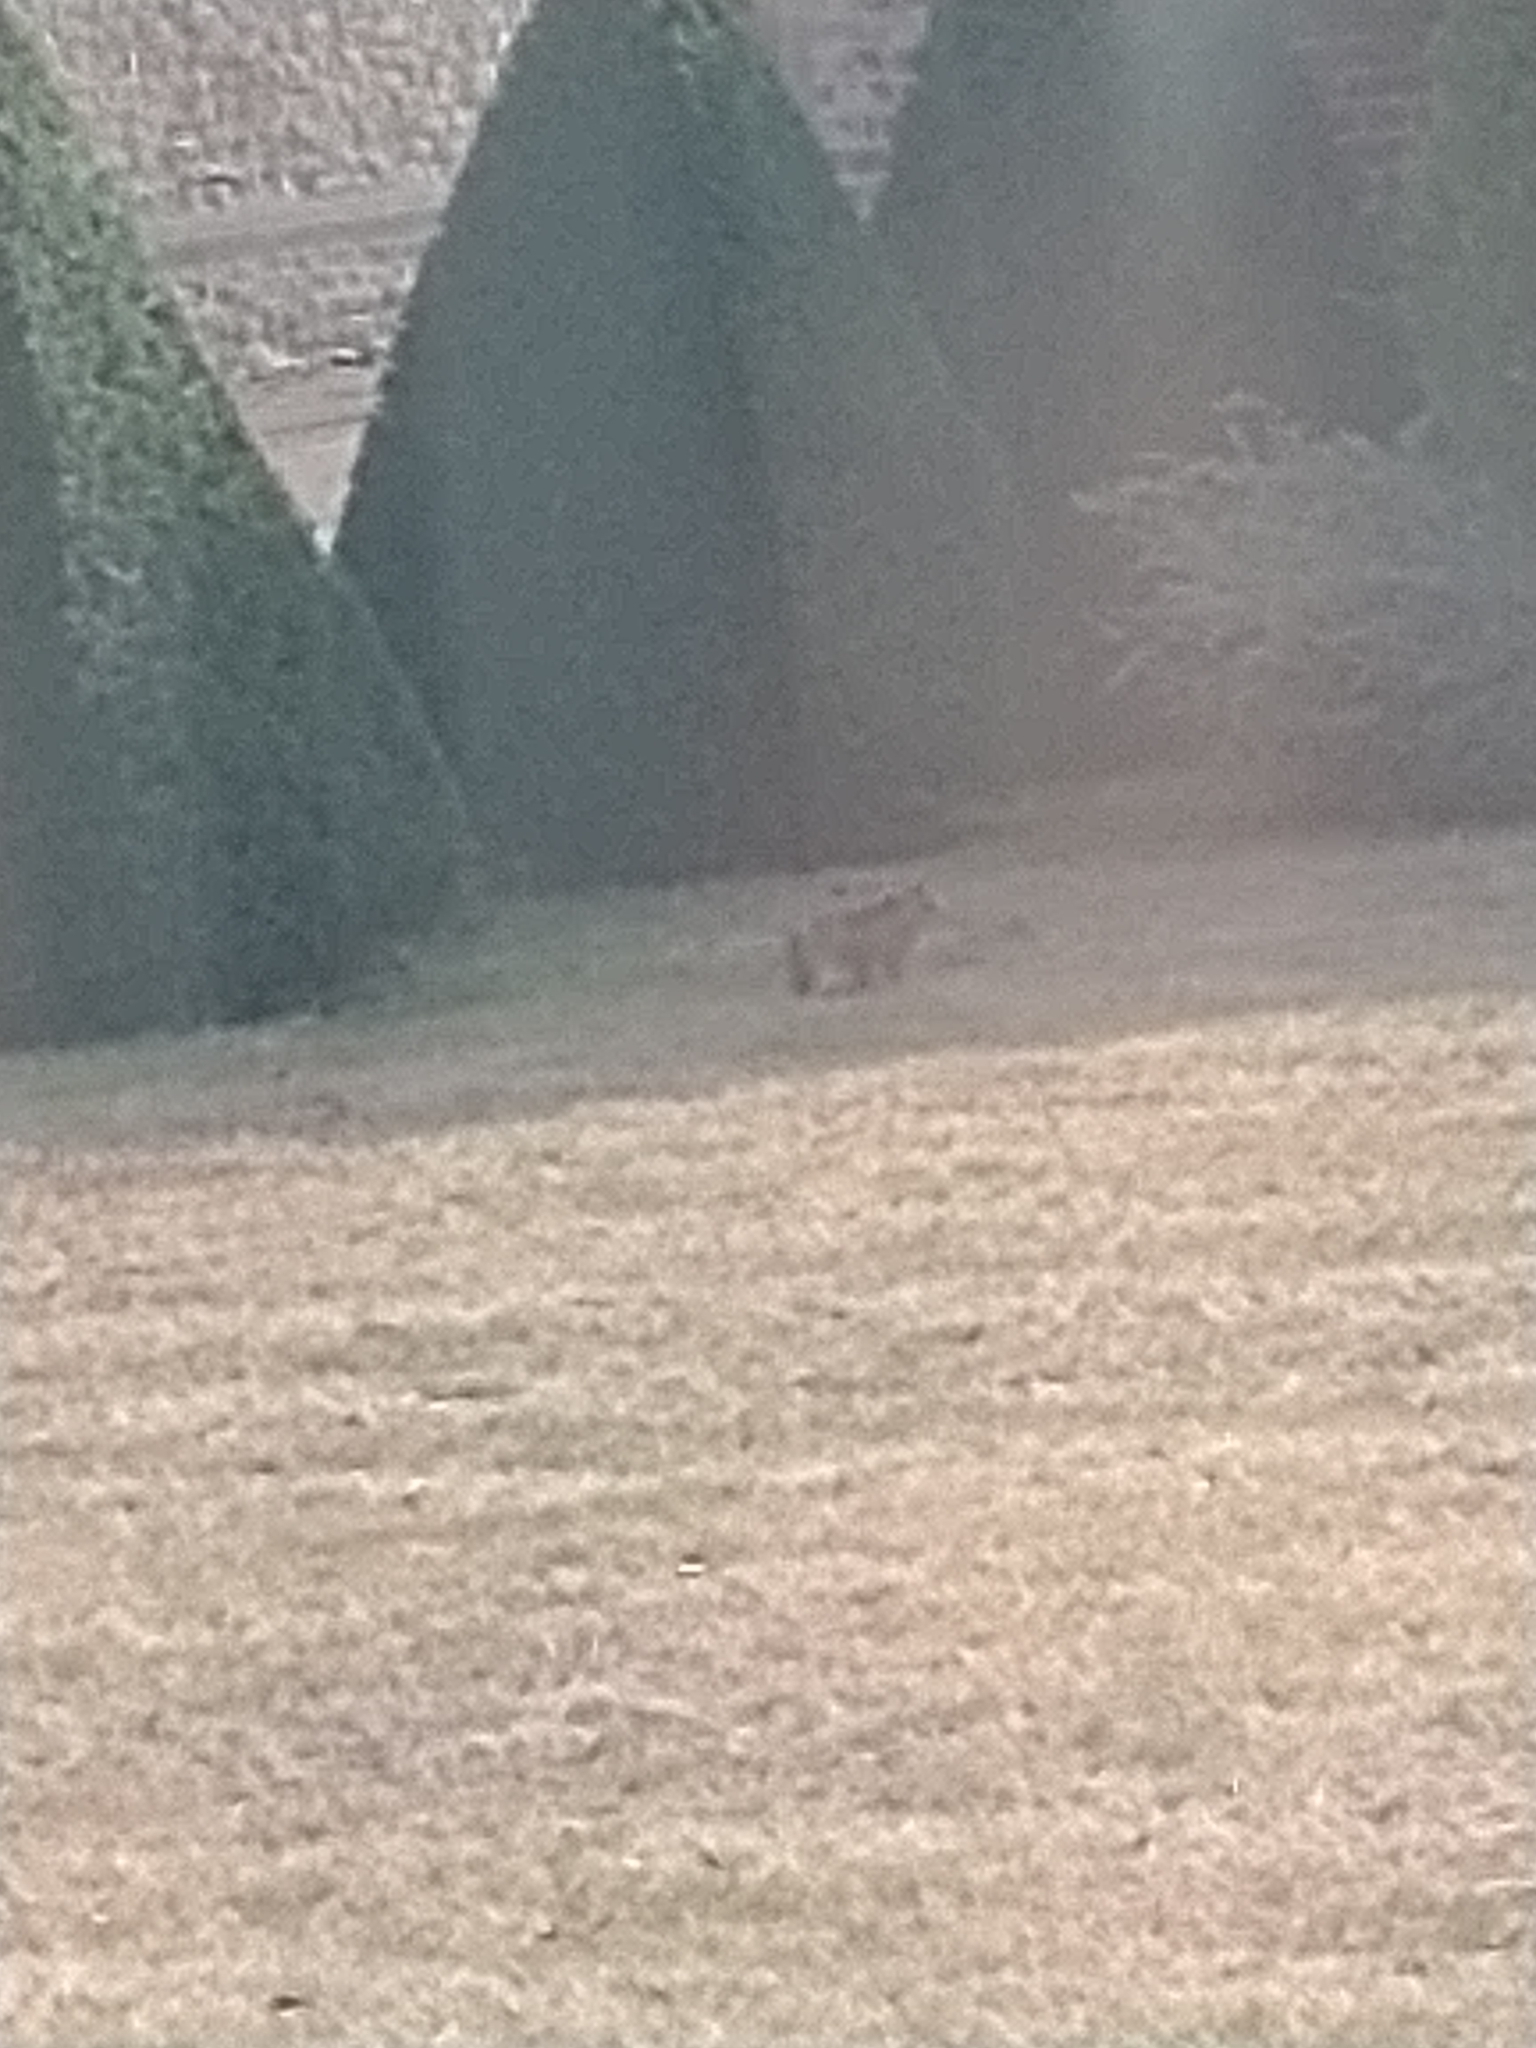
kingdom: Animalia
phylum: Chordata
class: Mammalia
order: Lagomorpha
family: Leporidae
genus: Lepus
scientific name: Lepus europaeus
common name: European hare
